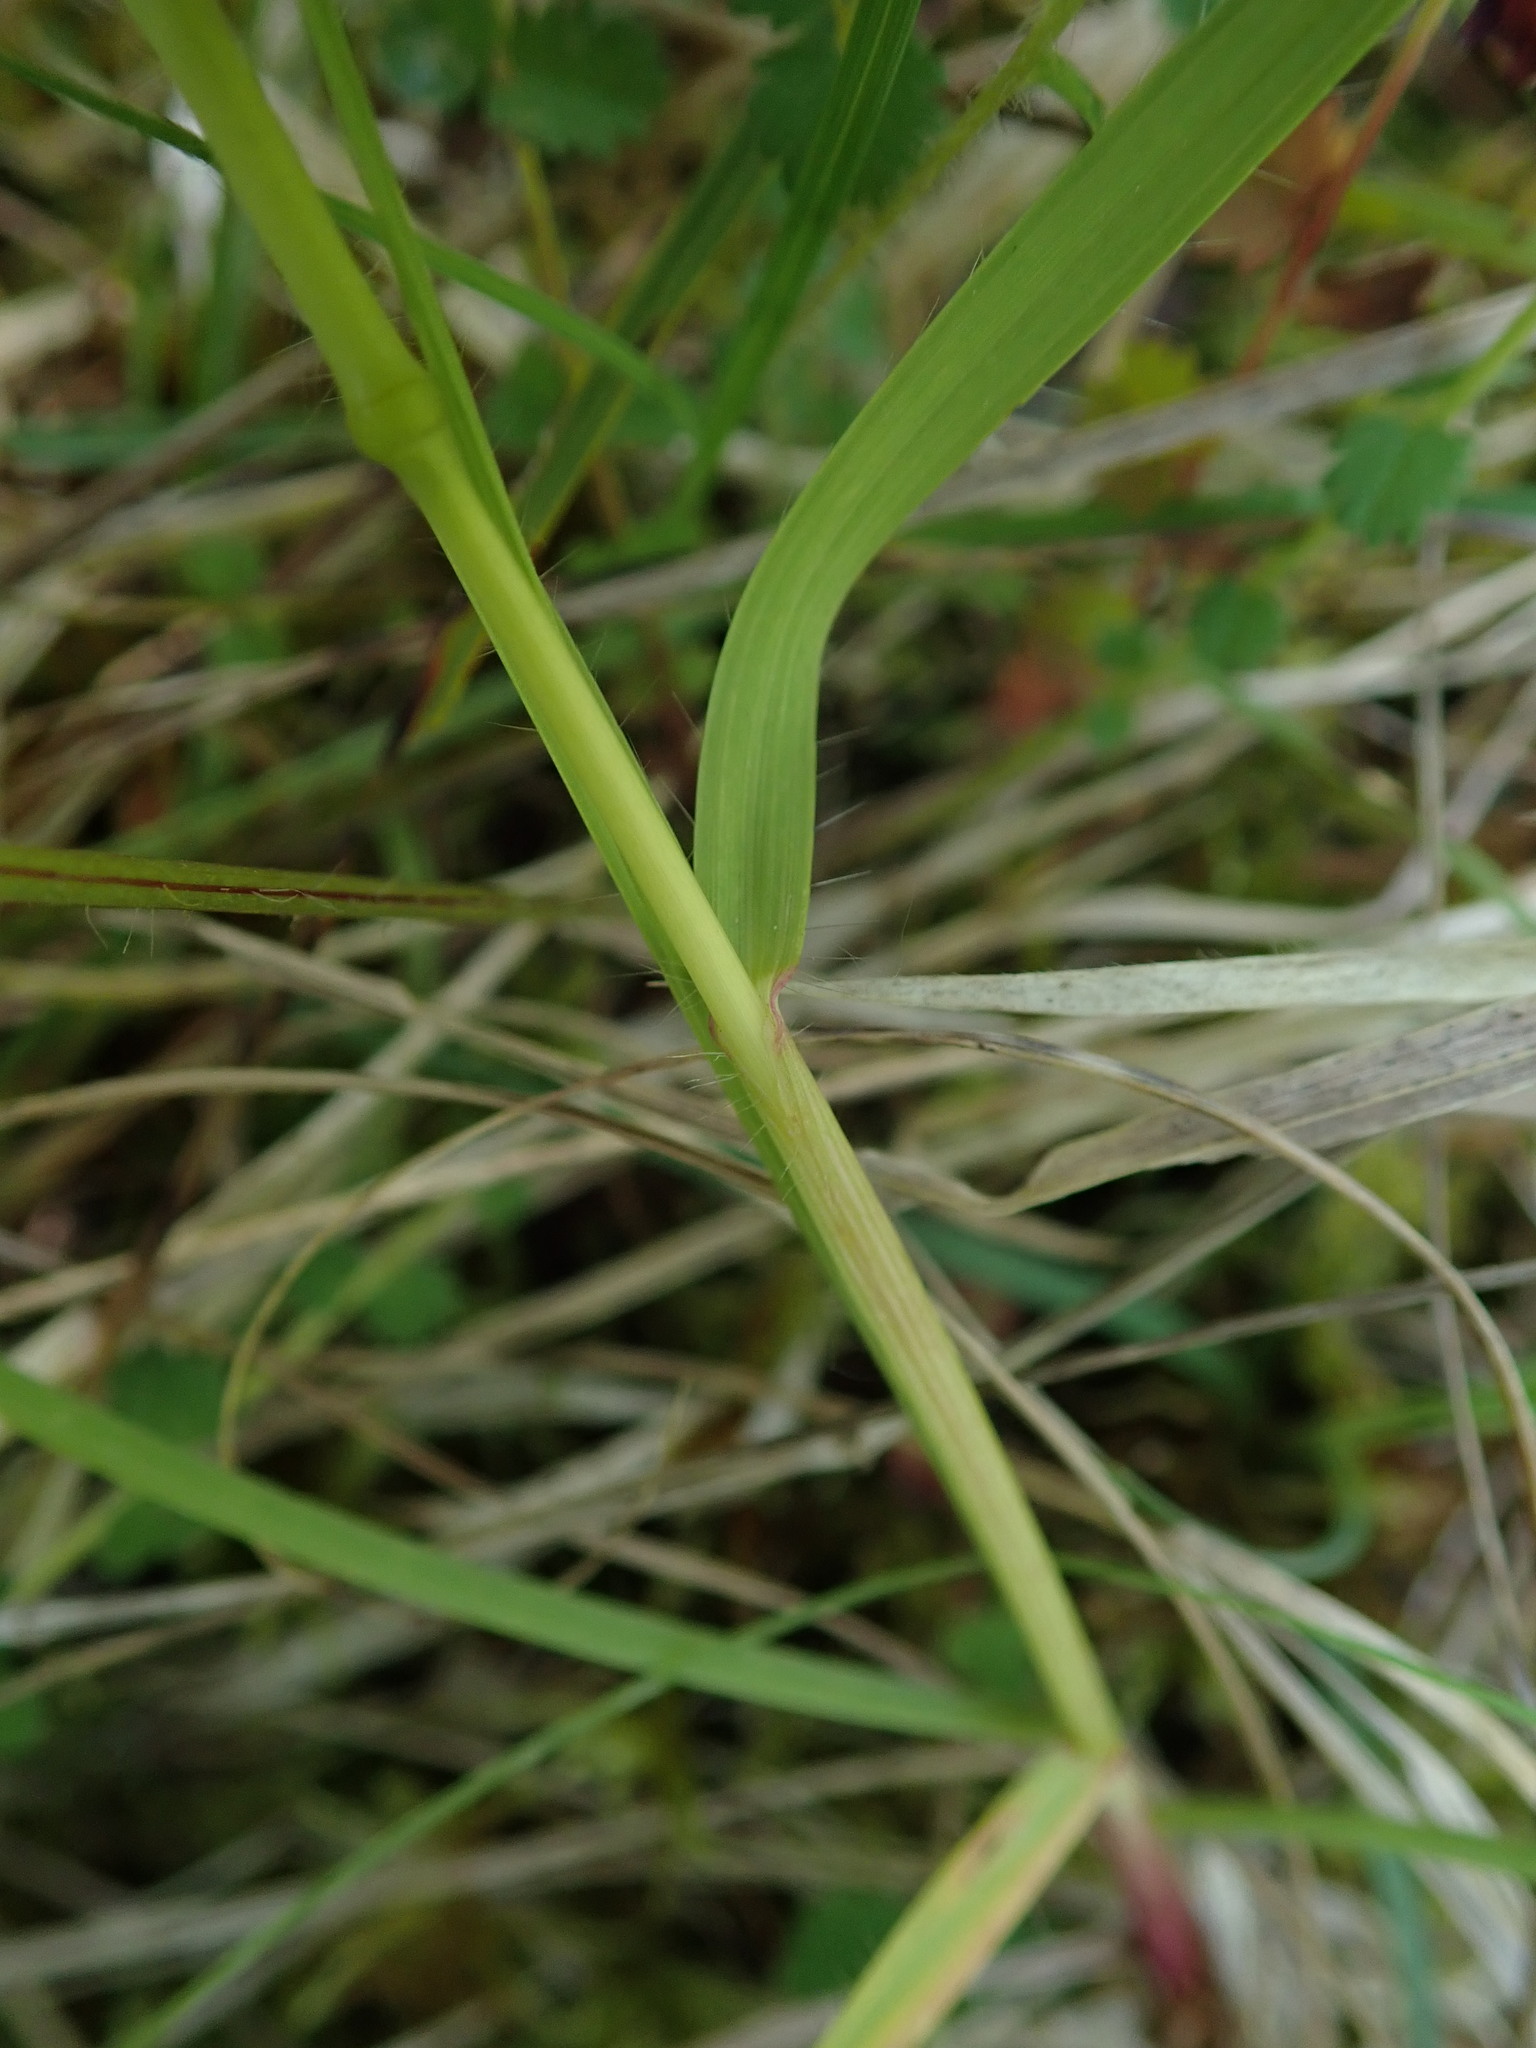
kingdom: Plantae
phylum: Tracheophyta
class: Liliopsida
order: Poales
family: Poaceae
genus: Bromus
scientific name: Bromus erectus
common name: Erect brome
